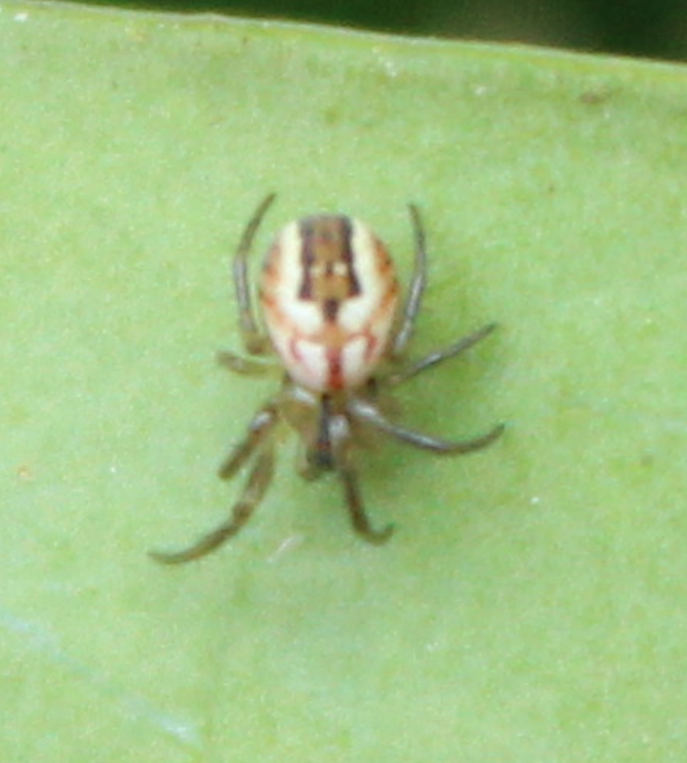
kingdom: Animalia
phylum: Arthropoda
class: Arachnida
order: Araneae
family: Araneidae
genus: Mangora
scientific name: Mangora acalypha
